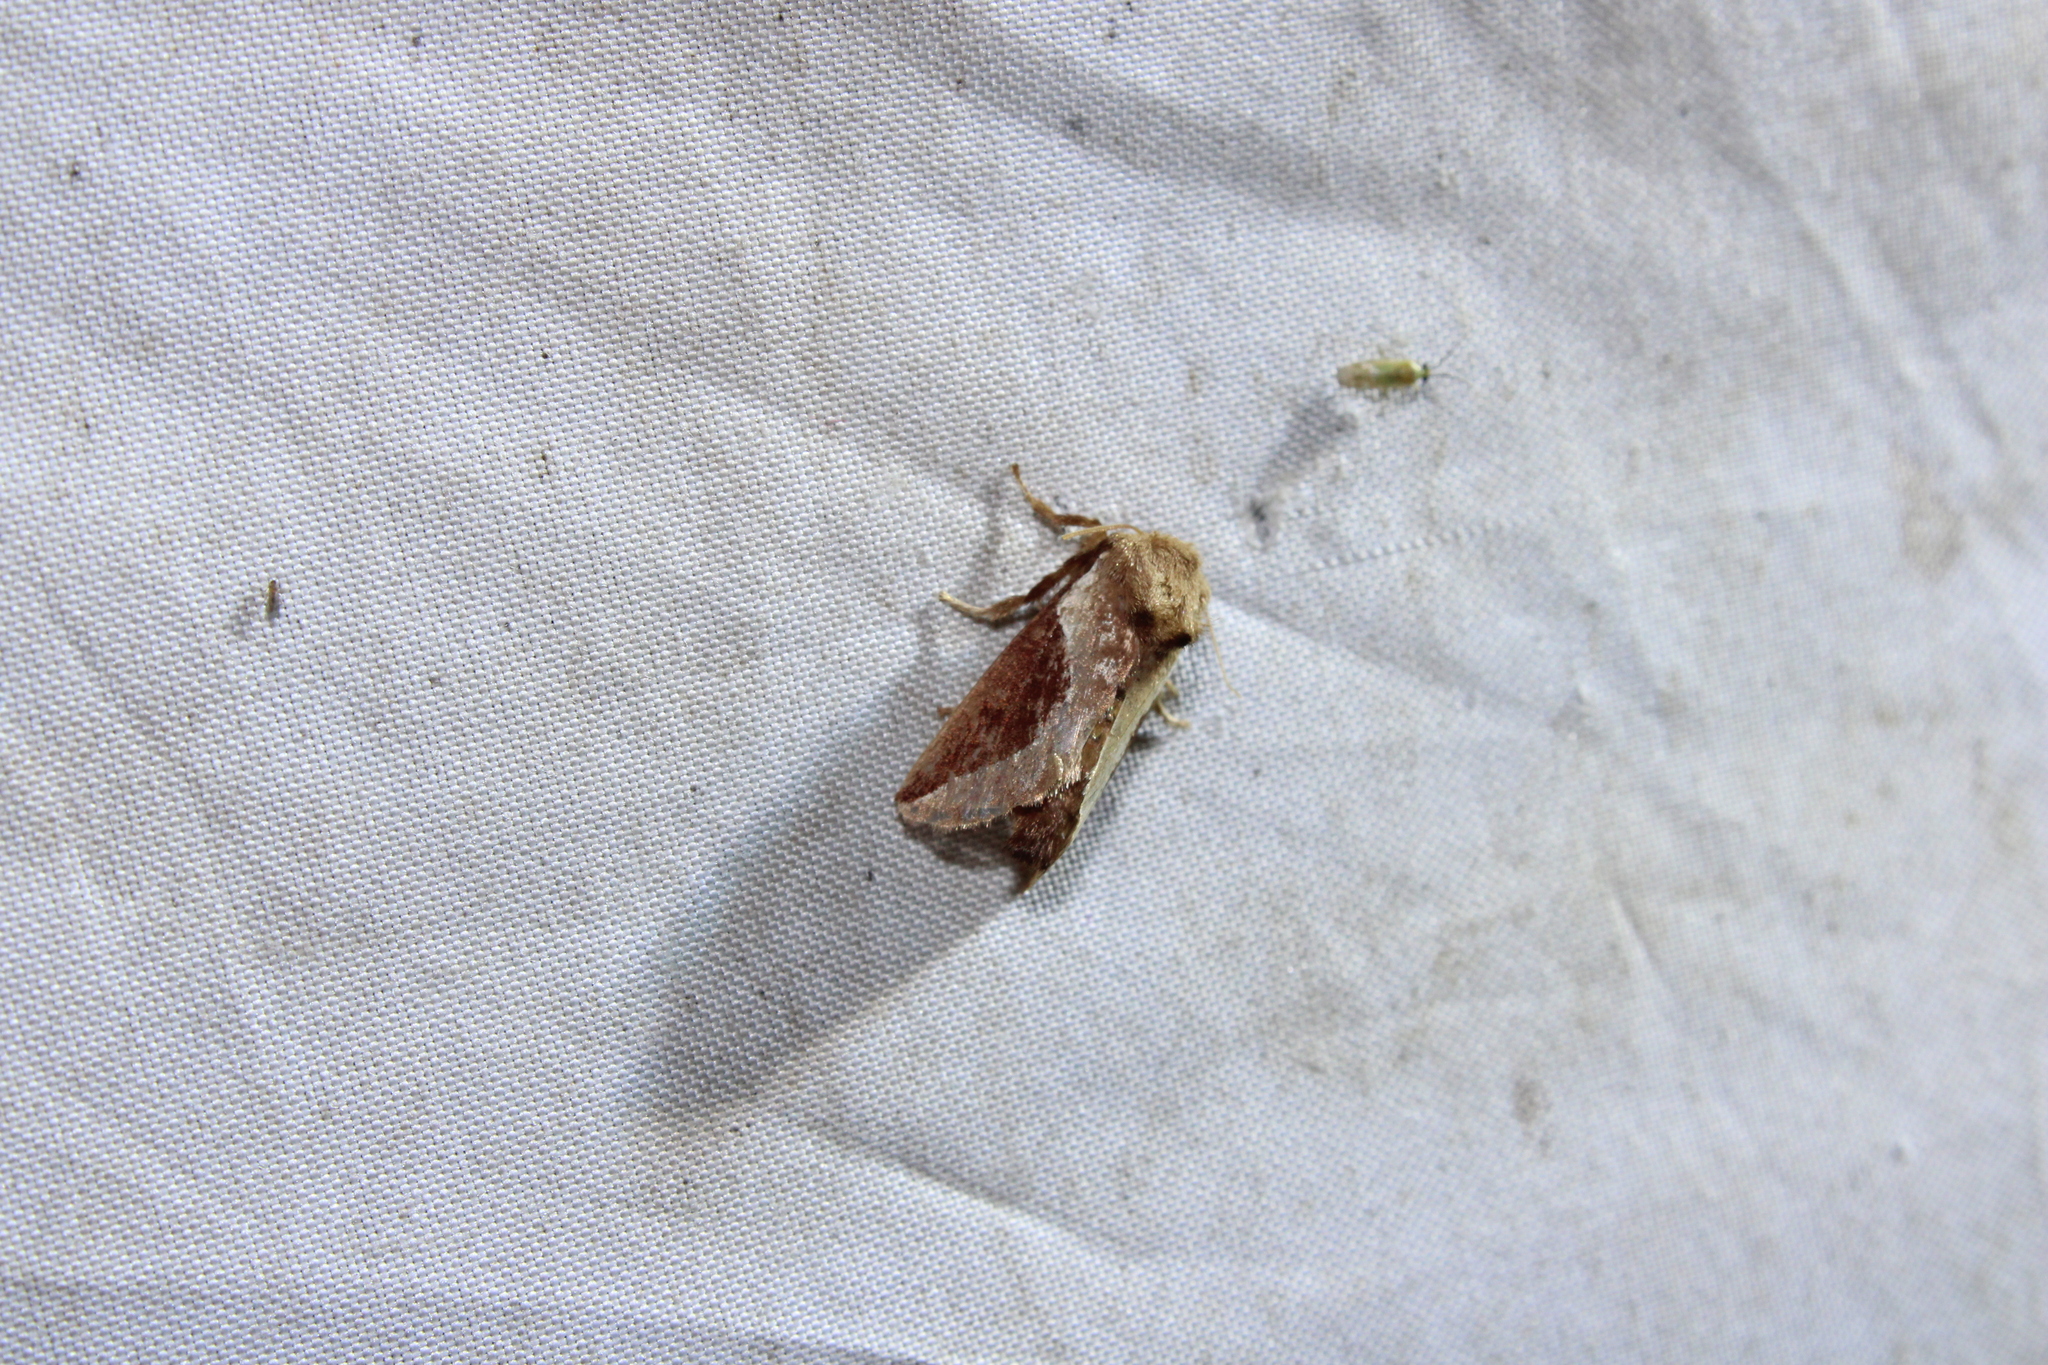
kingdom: Animalia
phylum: Arthropoda
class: Insecta
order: Lepidoptera
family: Limacodidae
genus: Prolimacodes
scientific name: Prolimacodes badia
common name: Skiff moth
